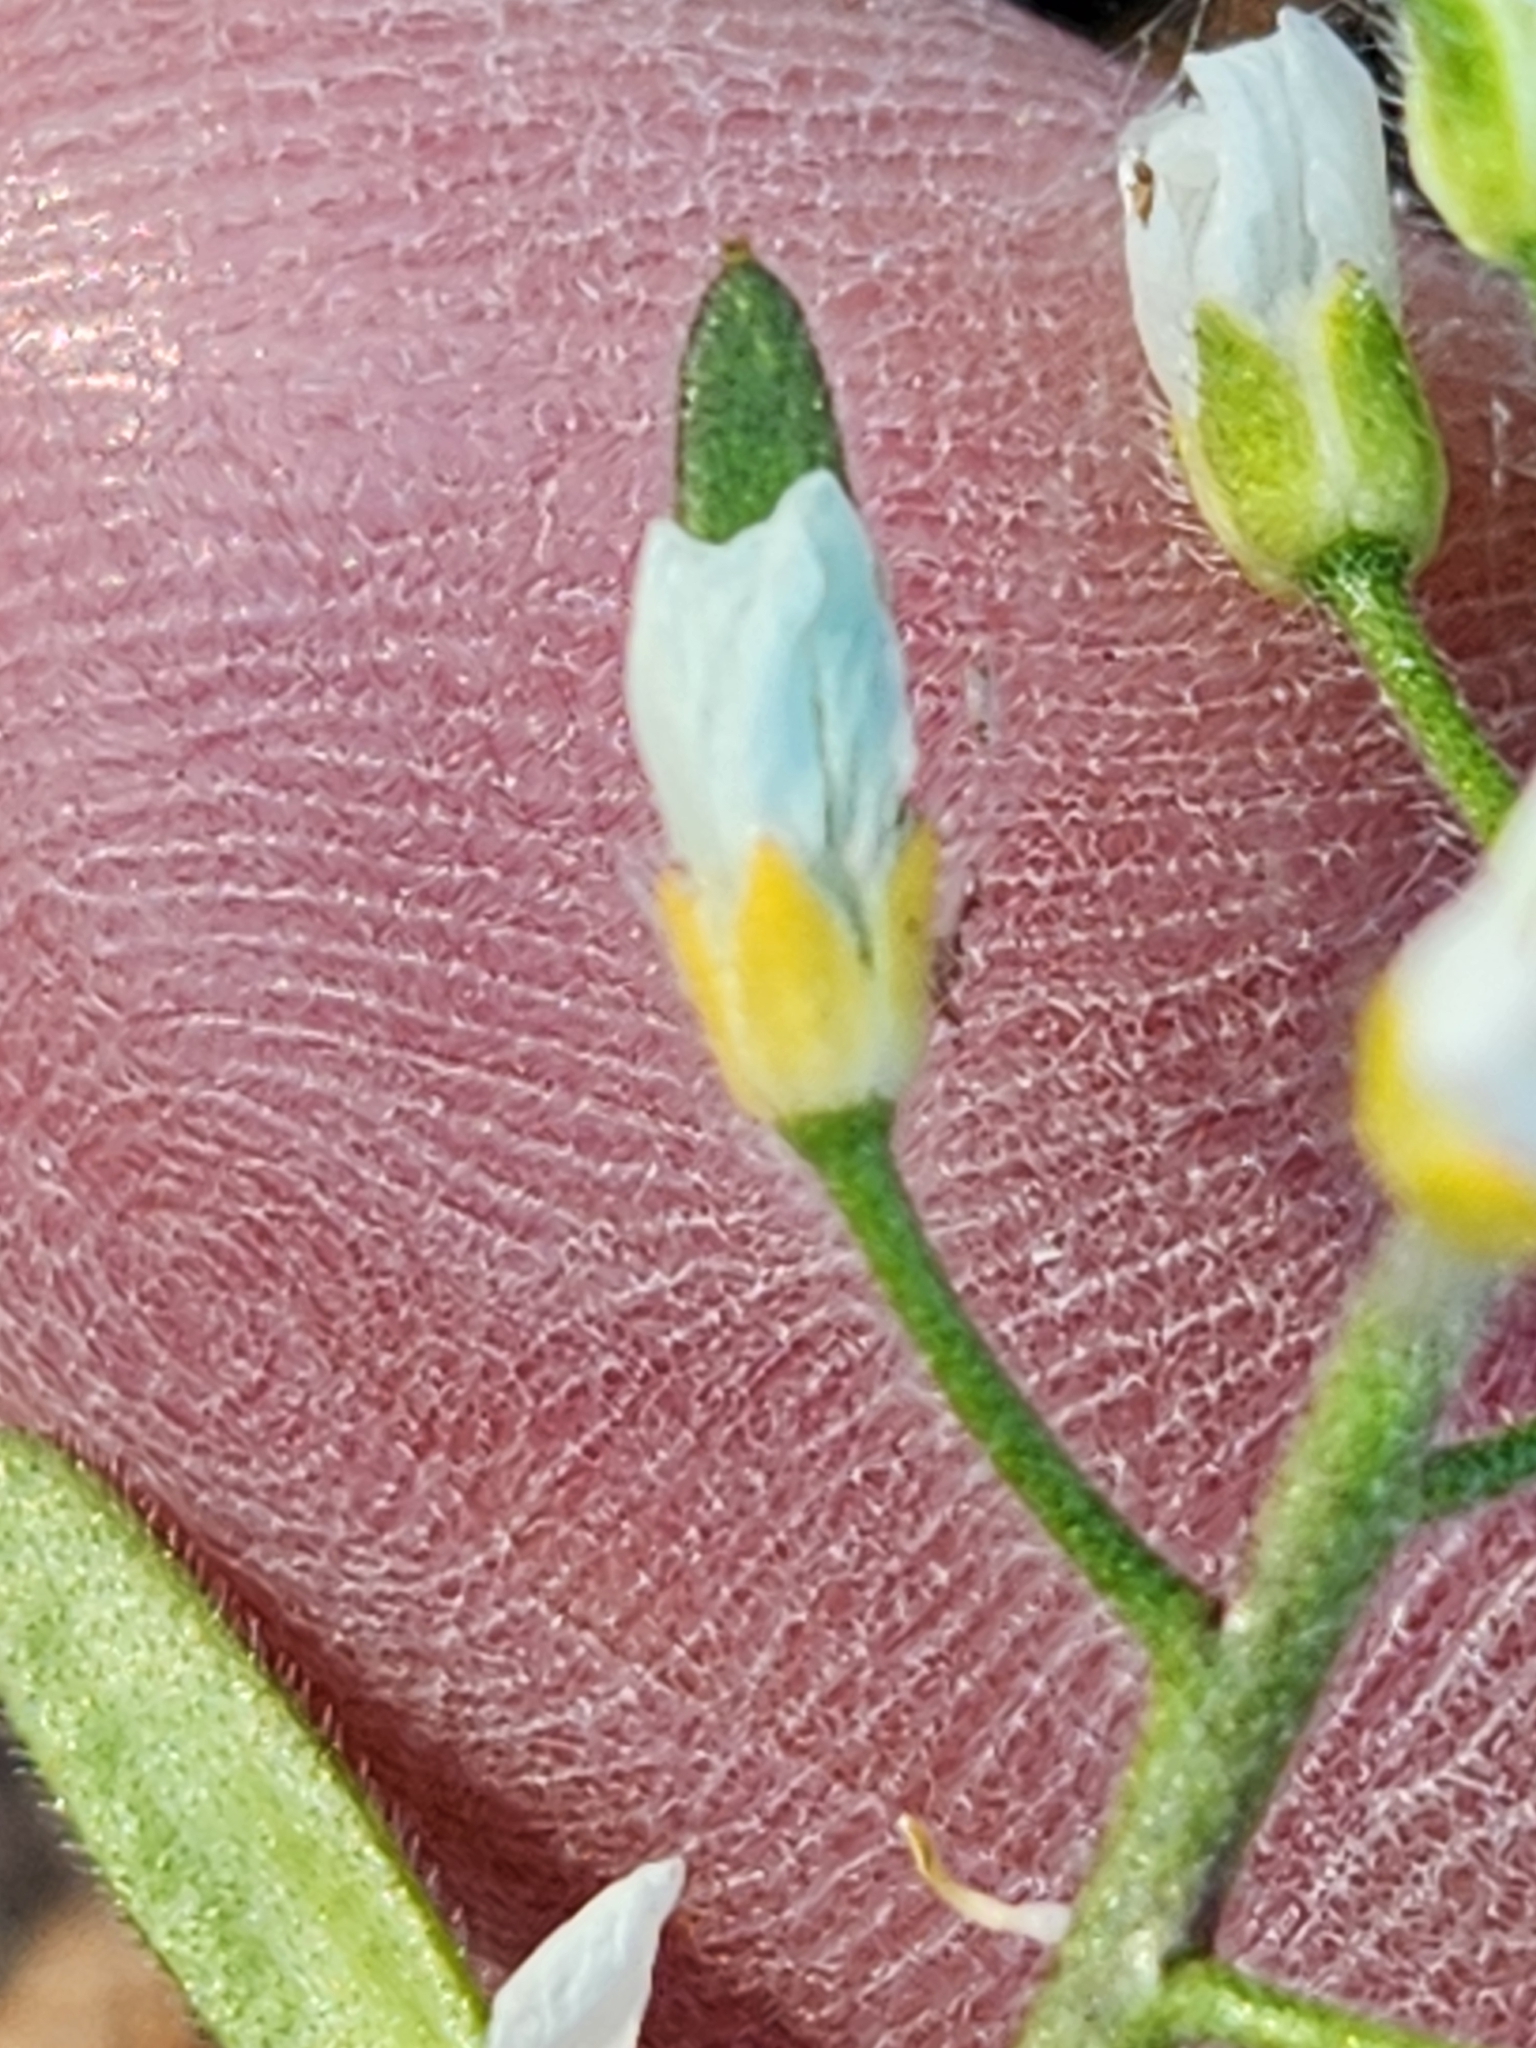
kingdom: Plantae
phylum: Tracheophyta
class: Magnoliopsida
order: Brassicales
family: Brassicaceae
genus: Tomostima
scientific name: Tomostima cuneifolia
